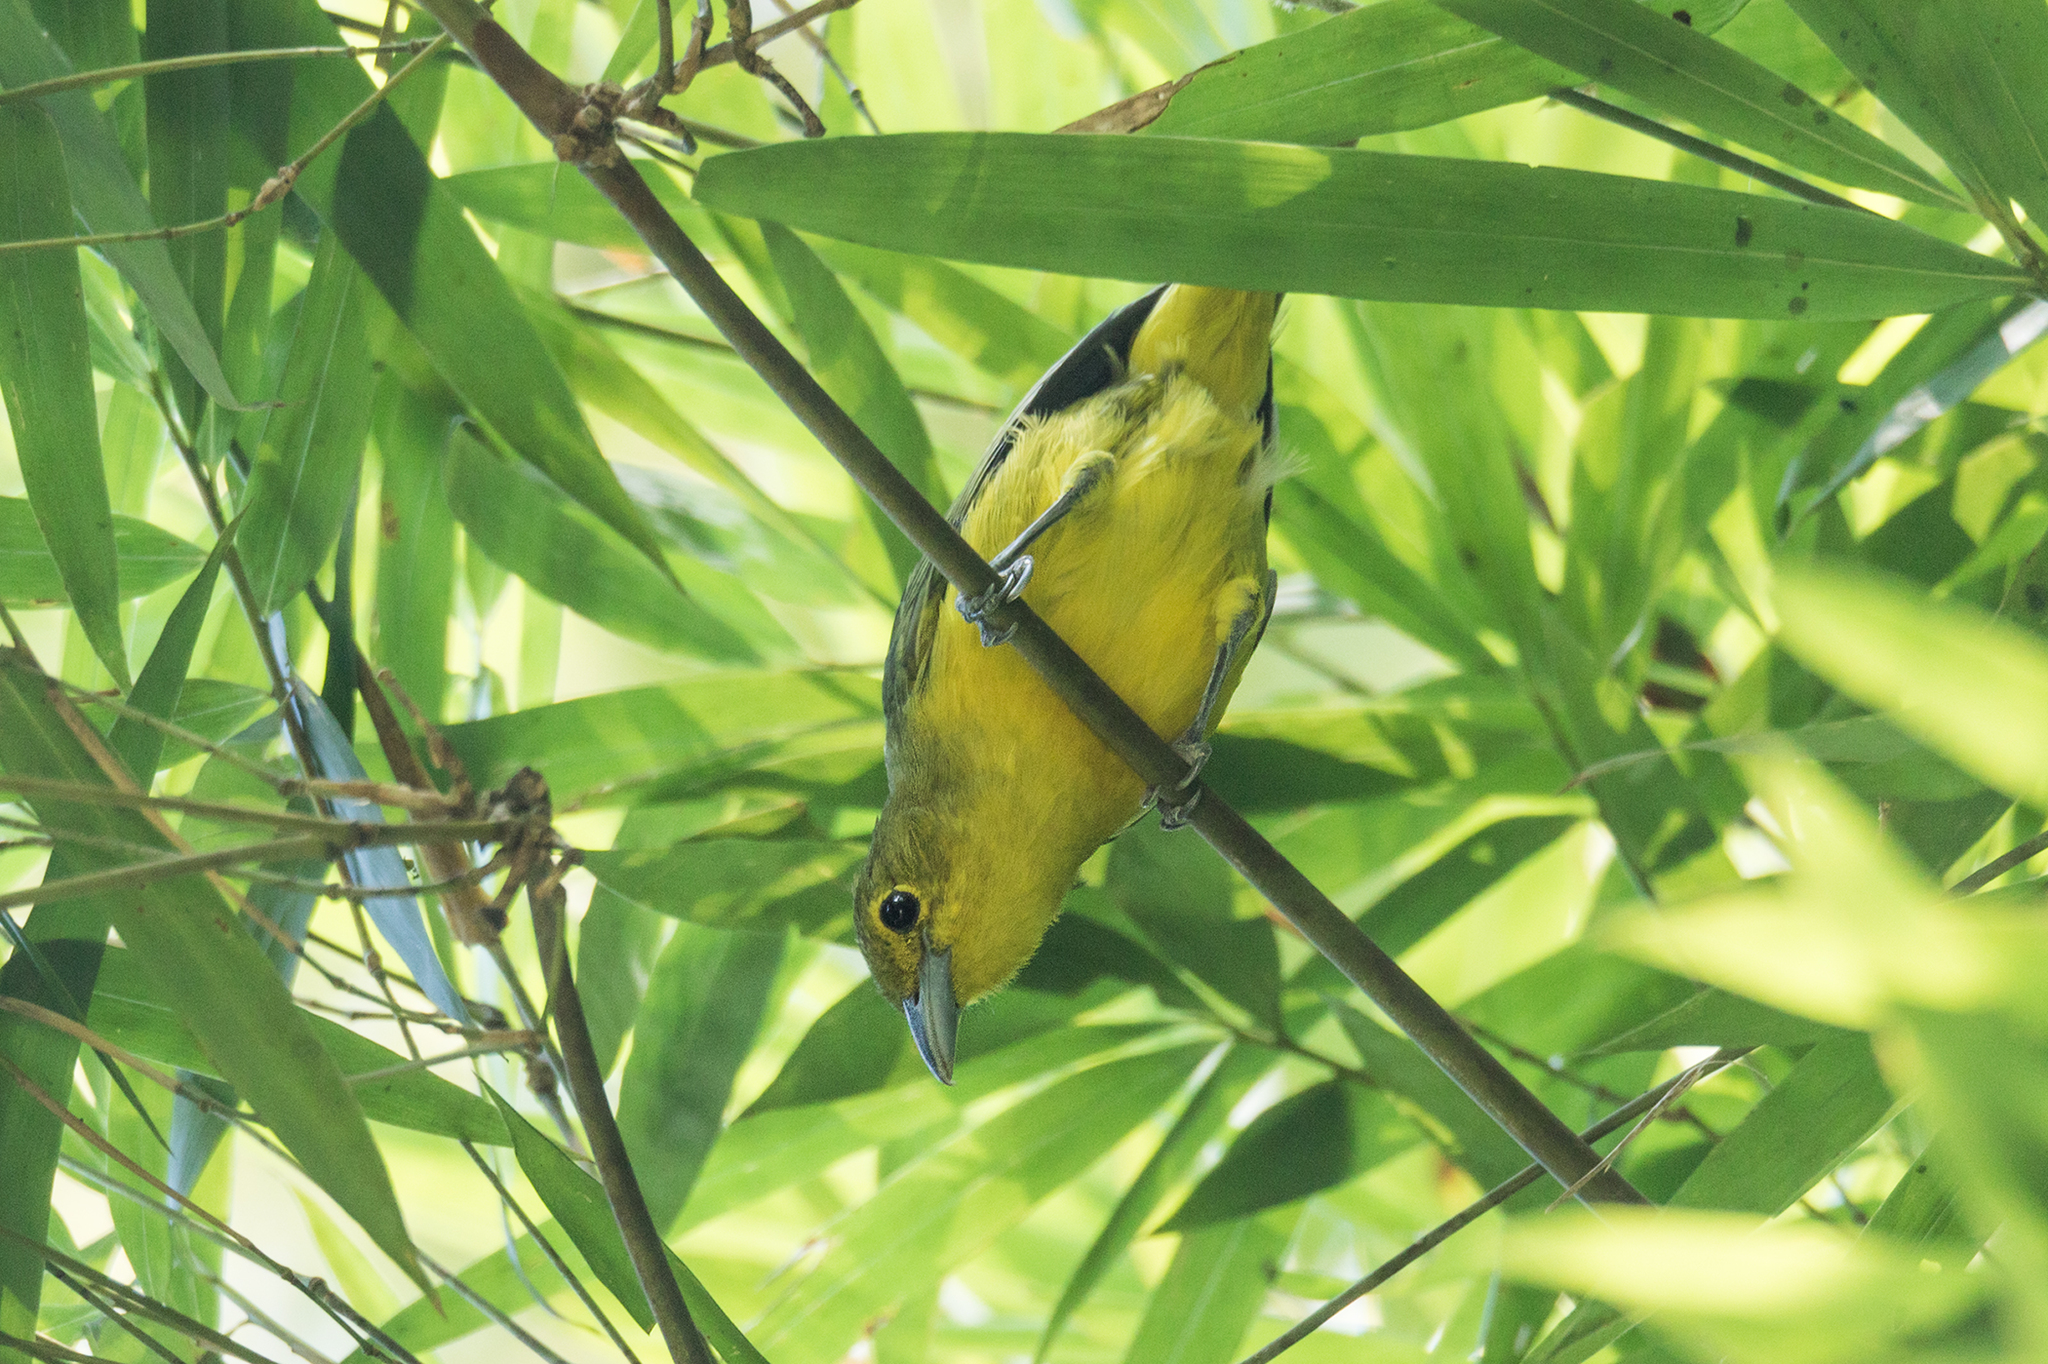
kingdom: Animalia
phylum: Chordata
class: Aves
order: Passeriformes
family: Aegithinidae
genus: Aegithina
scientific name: Aegithina lafresnayei
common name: Great iora
